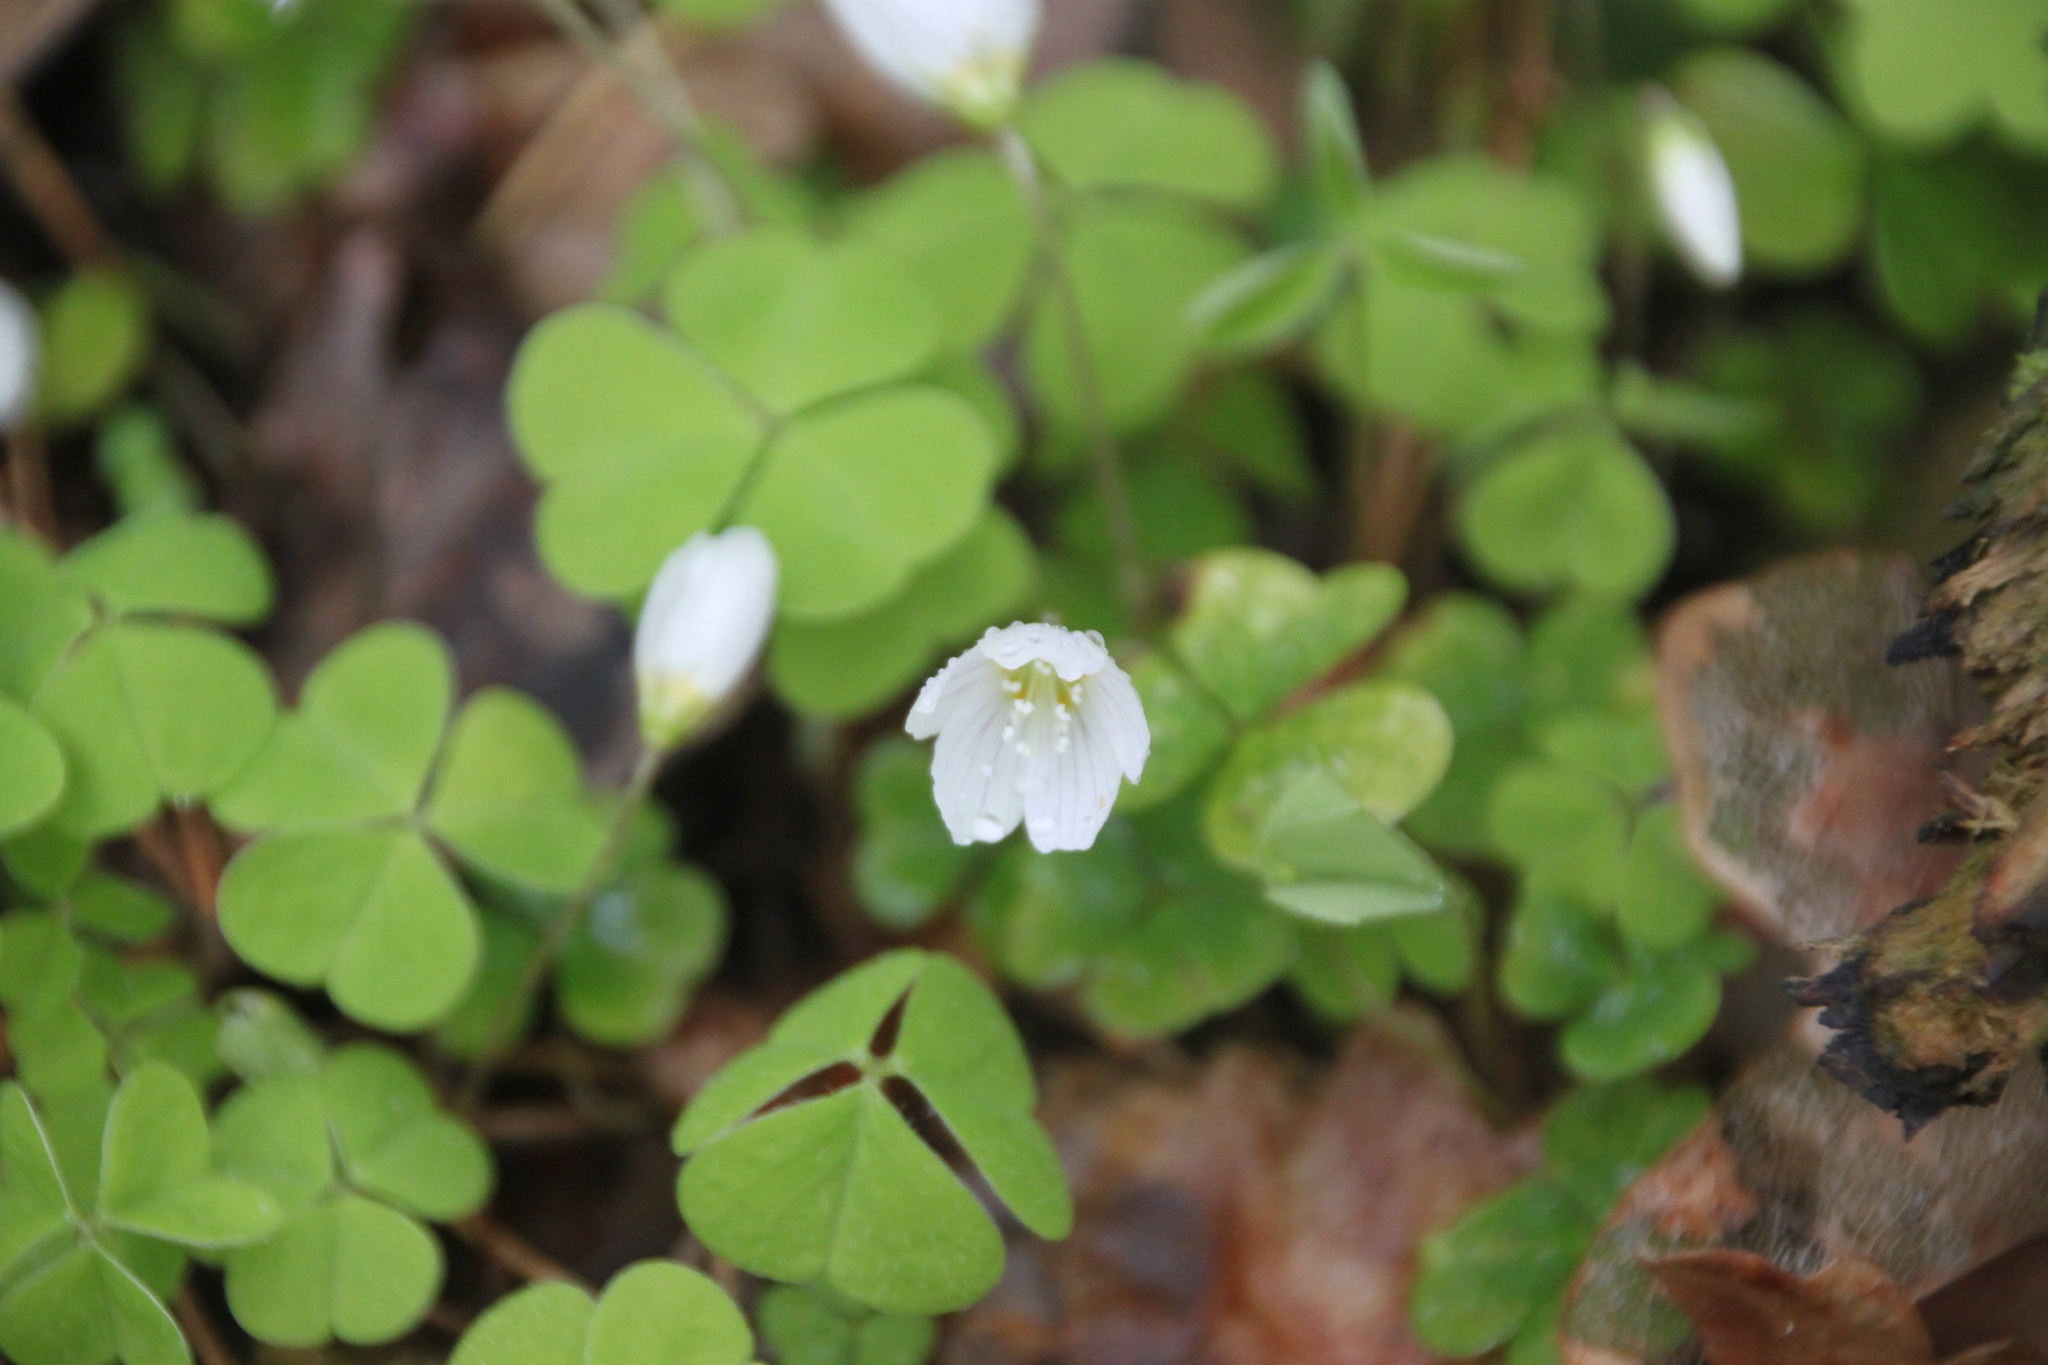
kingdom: Plantae
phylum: Tracheophyta
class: Magnoliopsida
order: Oxalidales
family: Oxalidaceae
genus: Oxalis
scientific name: Oxalis acetosella
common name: Wood-sorrel
